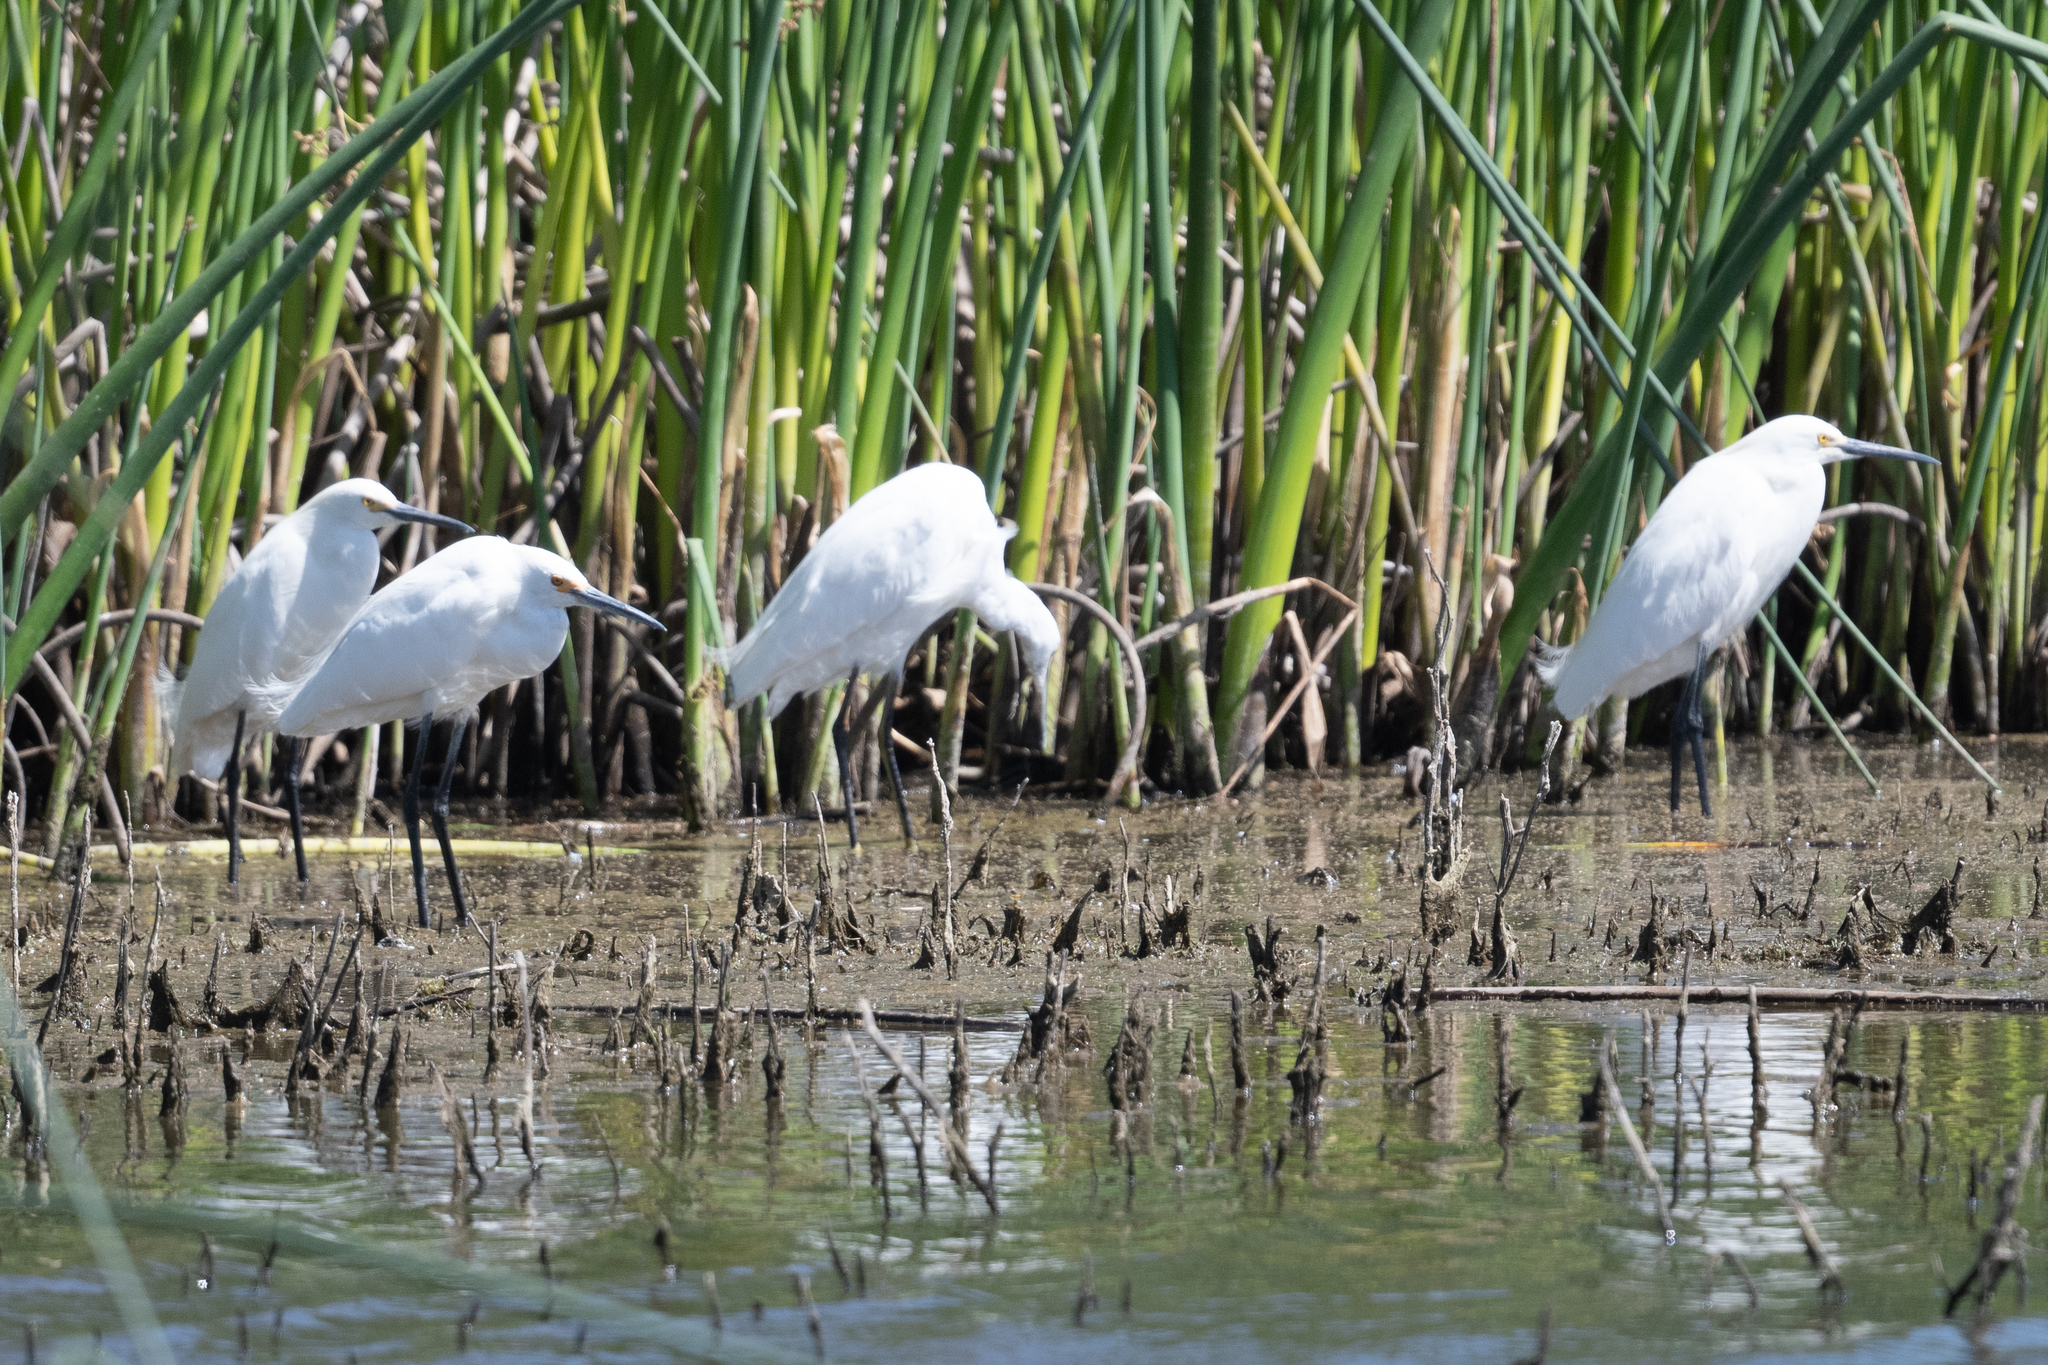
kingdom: Animalia
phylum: Chordata
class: Aves
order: Pelecaniformes
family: Ardeidae
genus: Egretta
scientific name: Egretta thula
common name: Snowy egret
